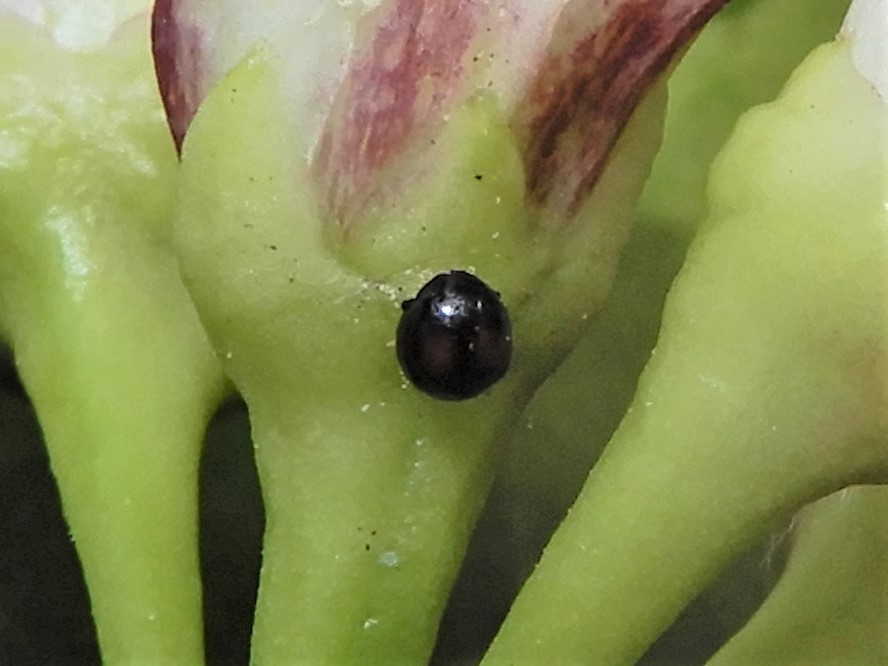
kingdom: Animalia
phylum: Arthropoda
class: Insecta
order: Coleoptera
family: Coccinellidae
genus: Serangium
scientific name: Serangium maculigerum
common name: Lady beetle
